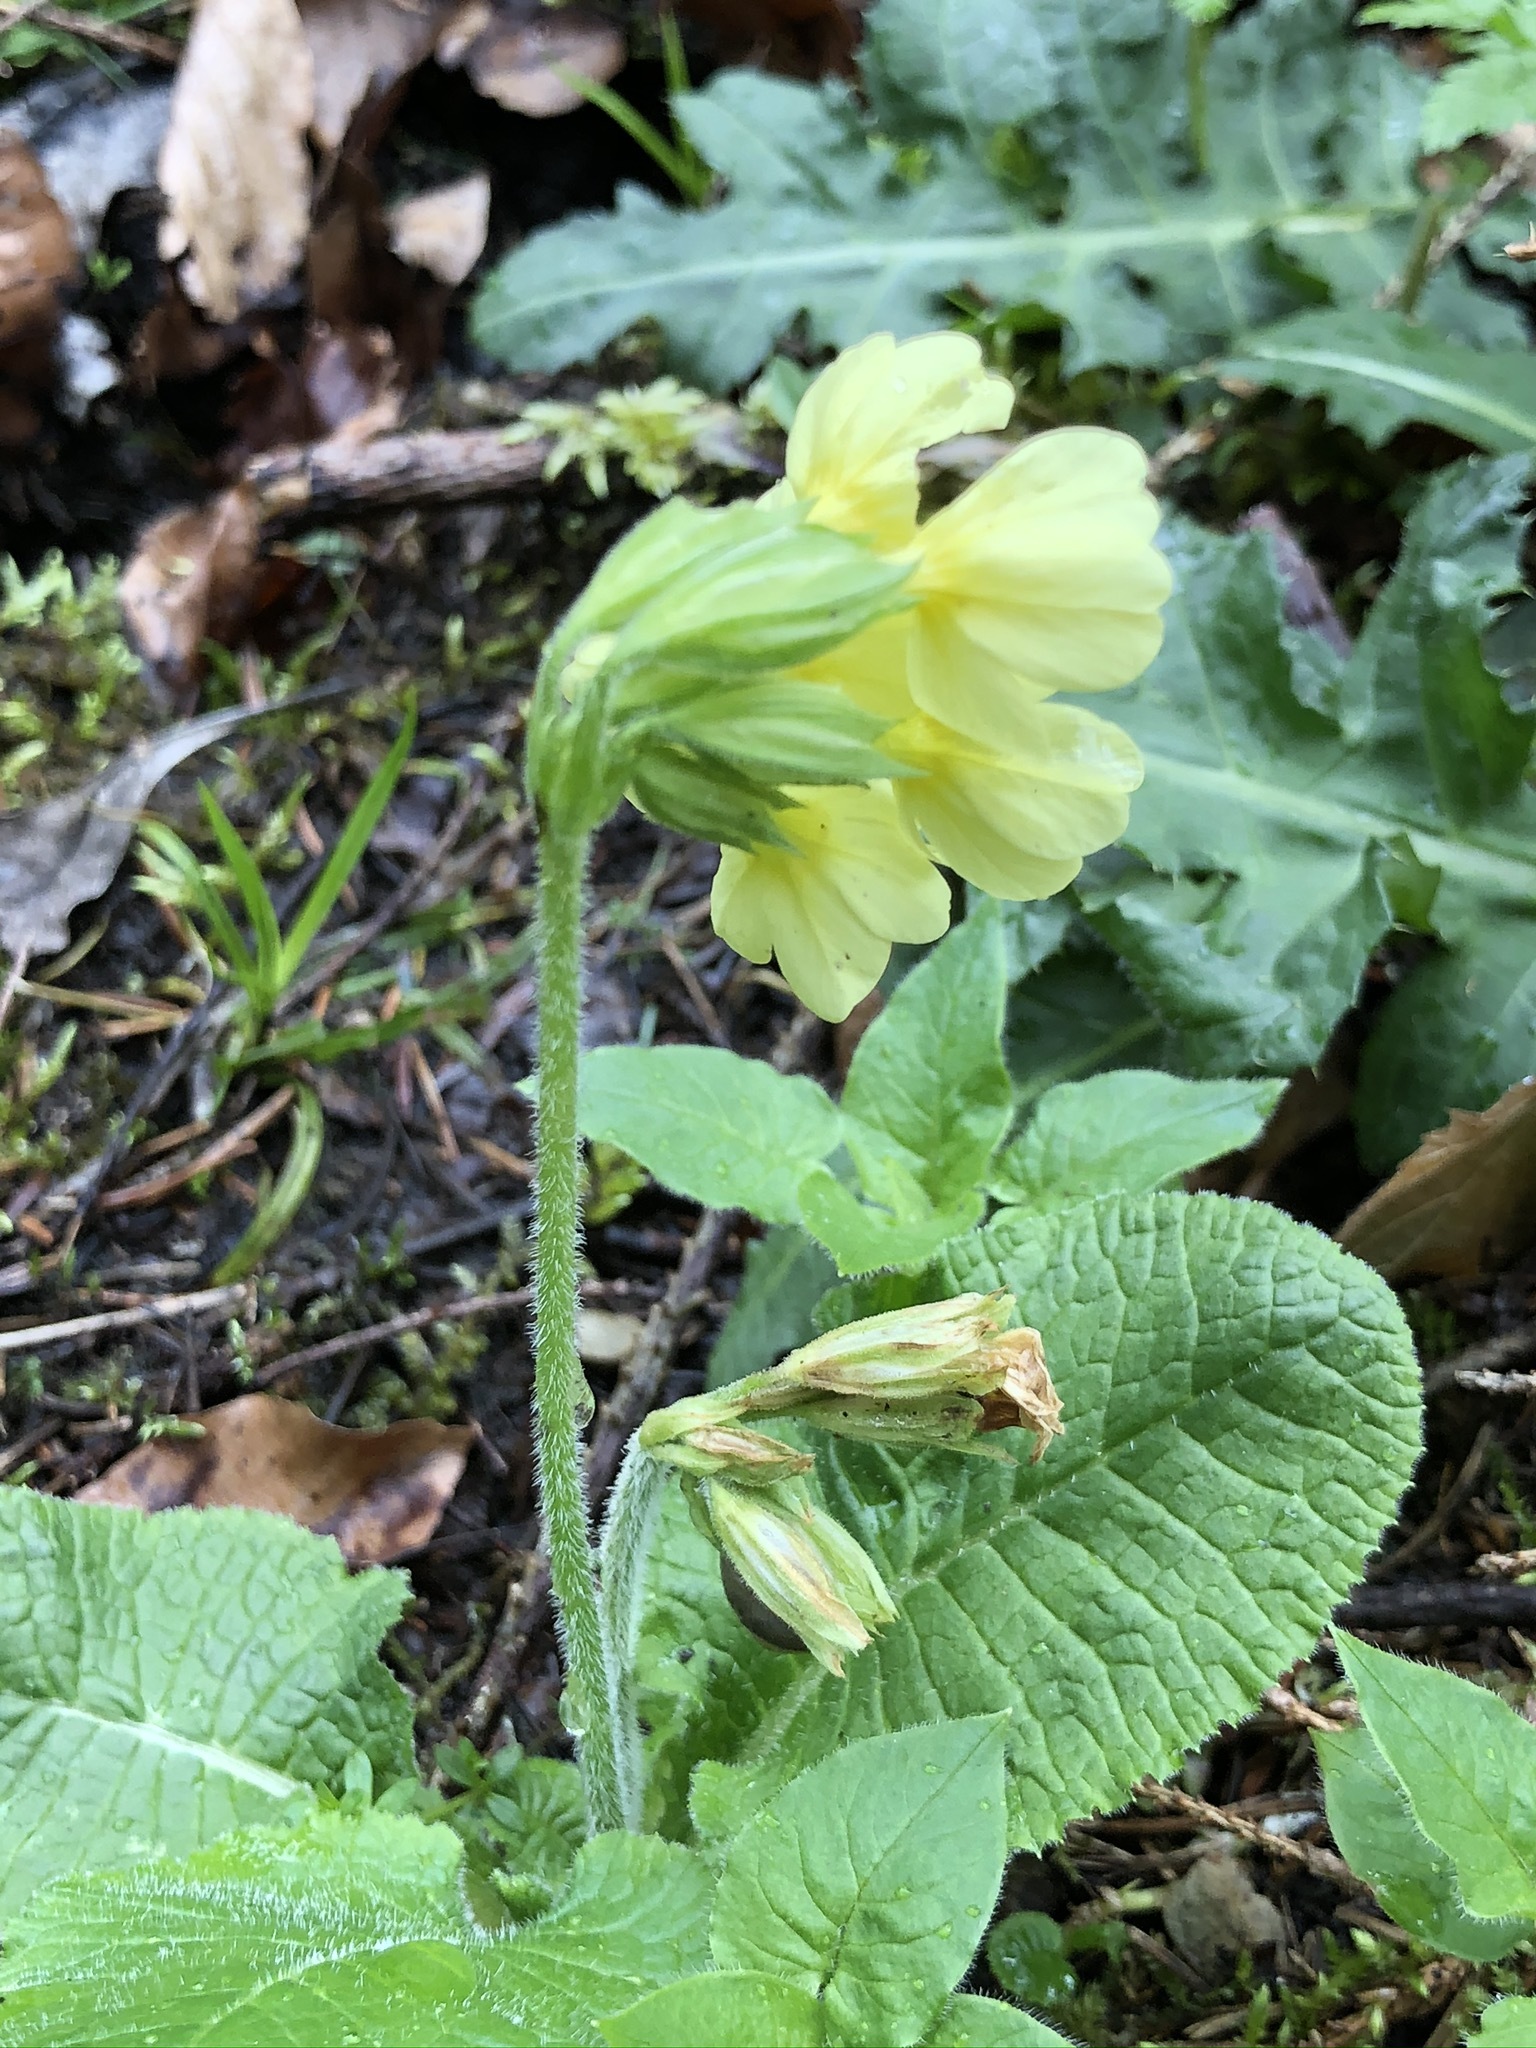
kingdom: Plantae
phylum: Tracheophyta
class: Magnoliopsida
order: Ericales
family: Primulaceae
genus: Primula
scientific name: Primula elatior
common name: Oxlip
